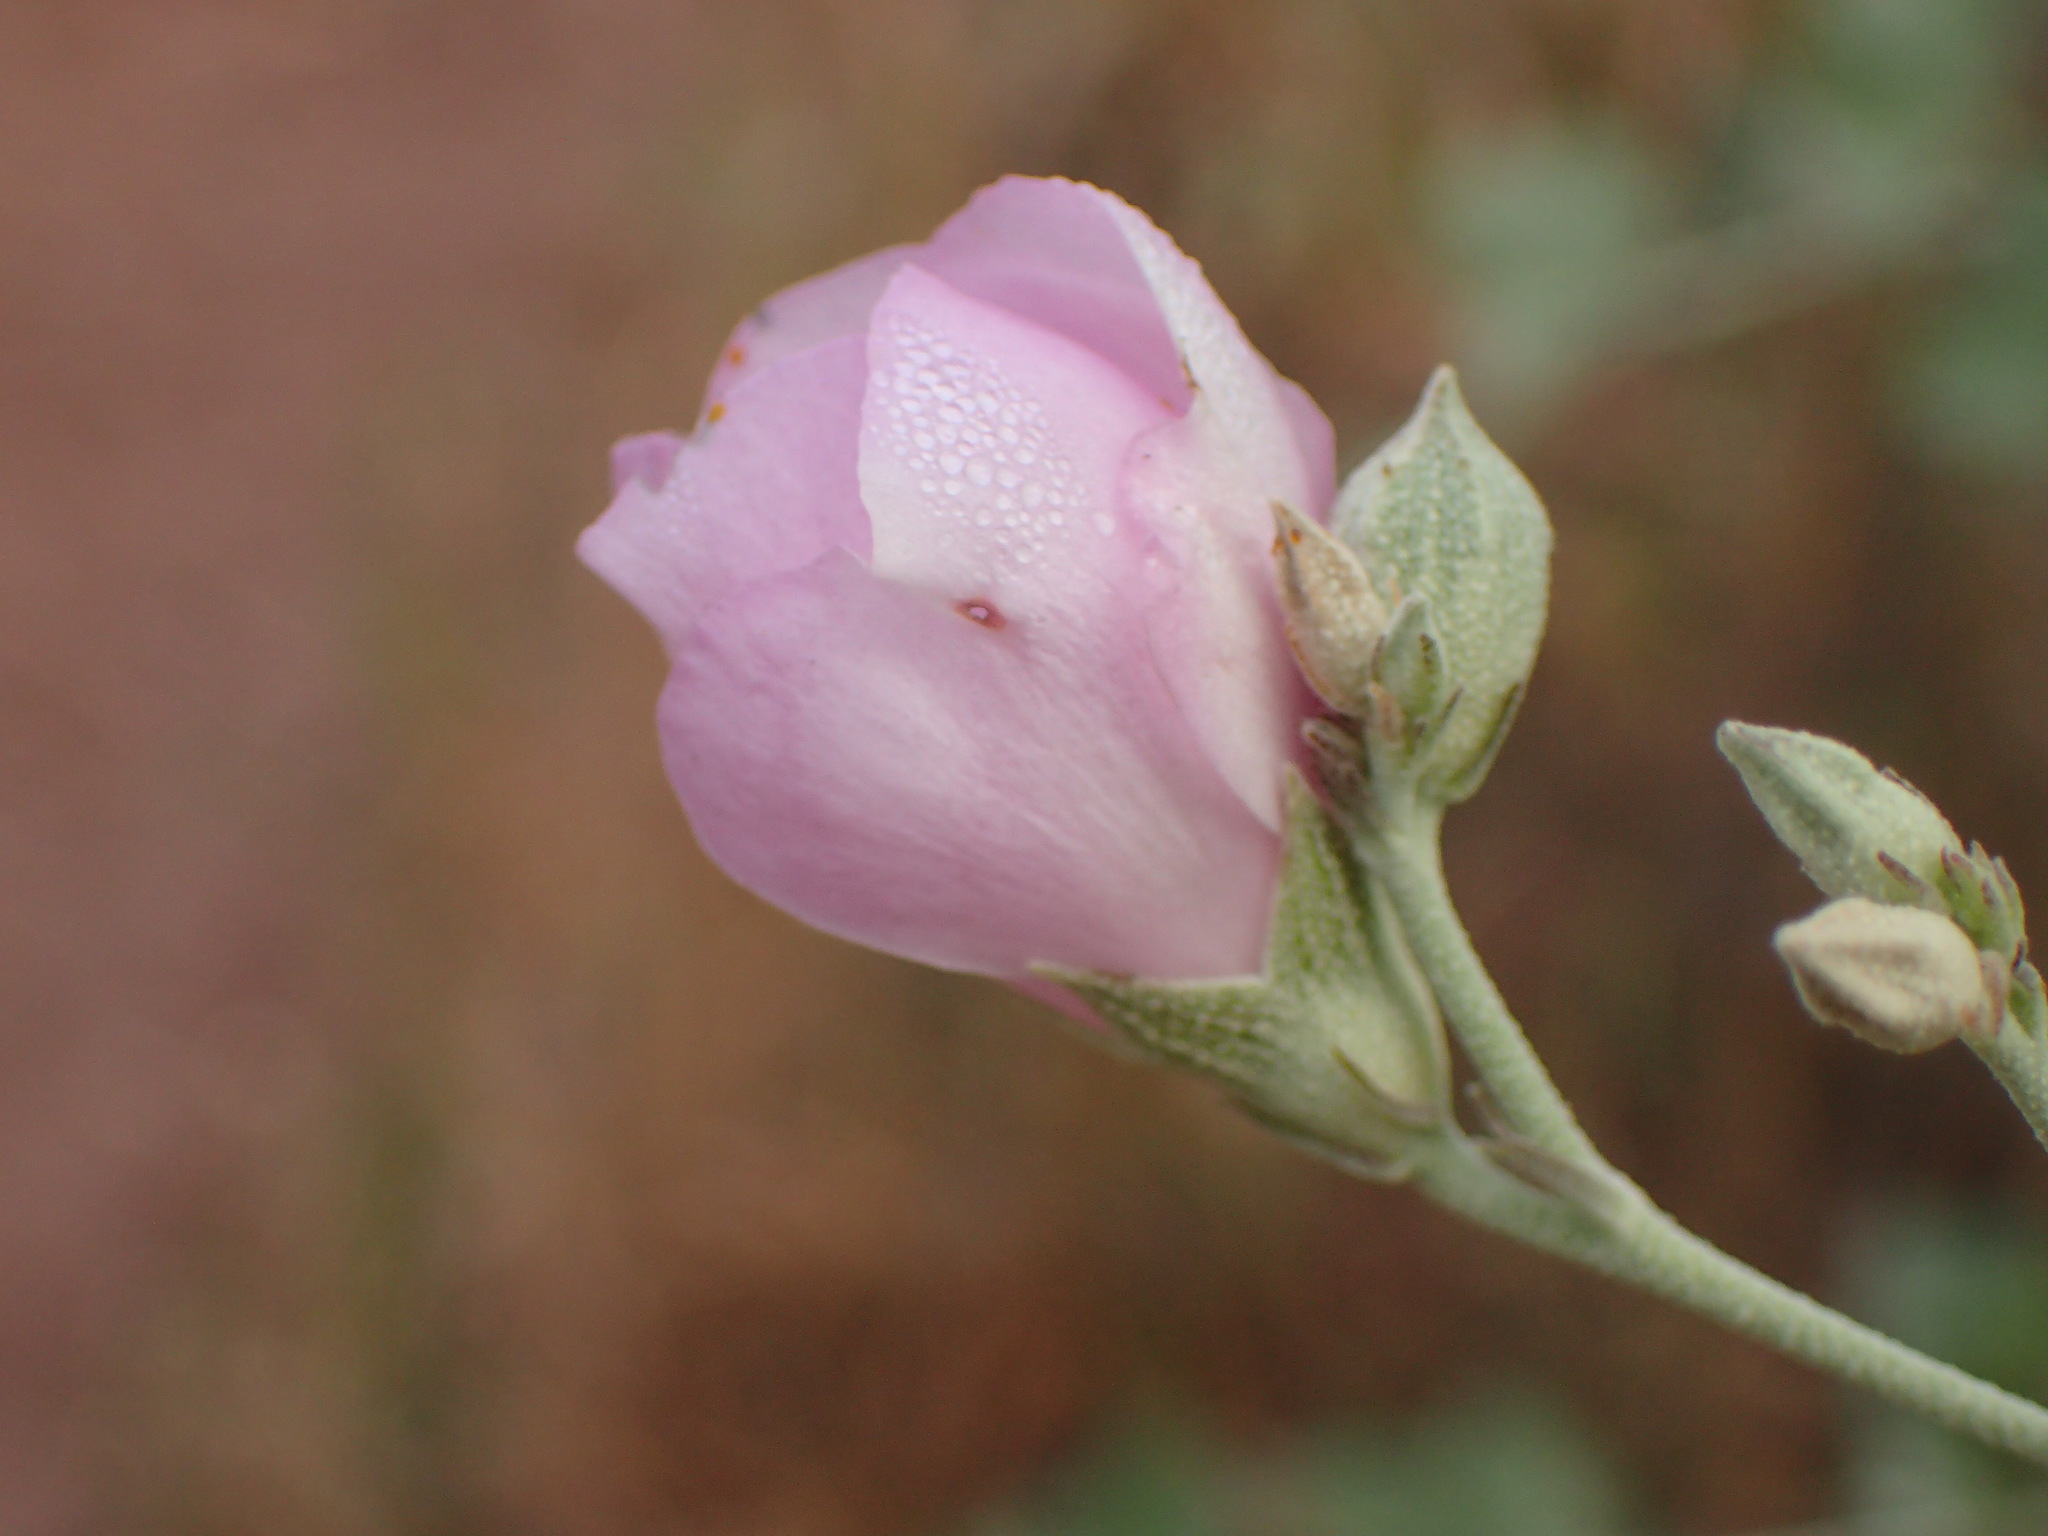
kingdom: Plantae
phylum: Tracheophyta
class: Magnoliopsida
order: Malvales
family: Malvaceae
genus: Malacothamnus
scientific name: Malacothamnus fasciculatus
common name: Sant cruz island bush-mallow
